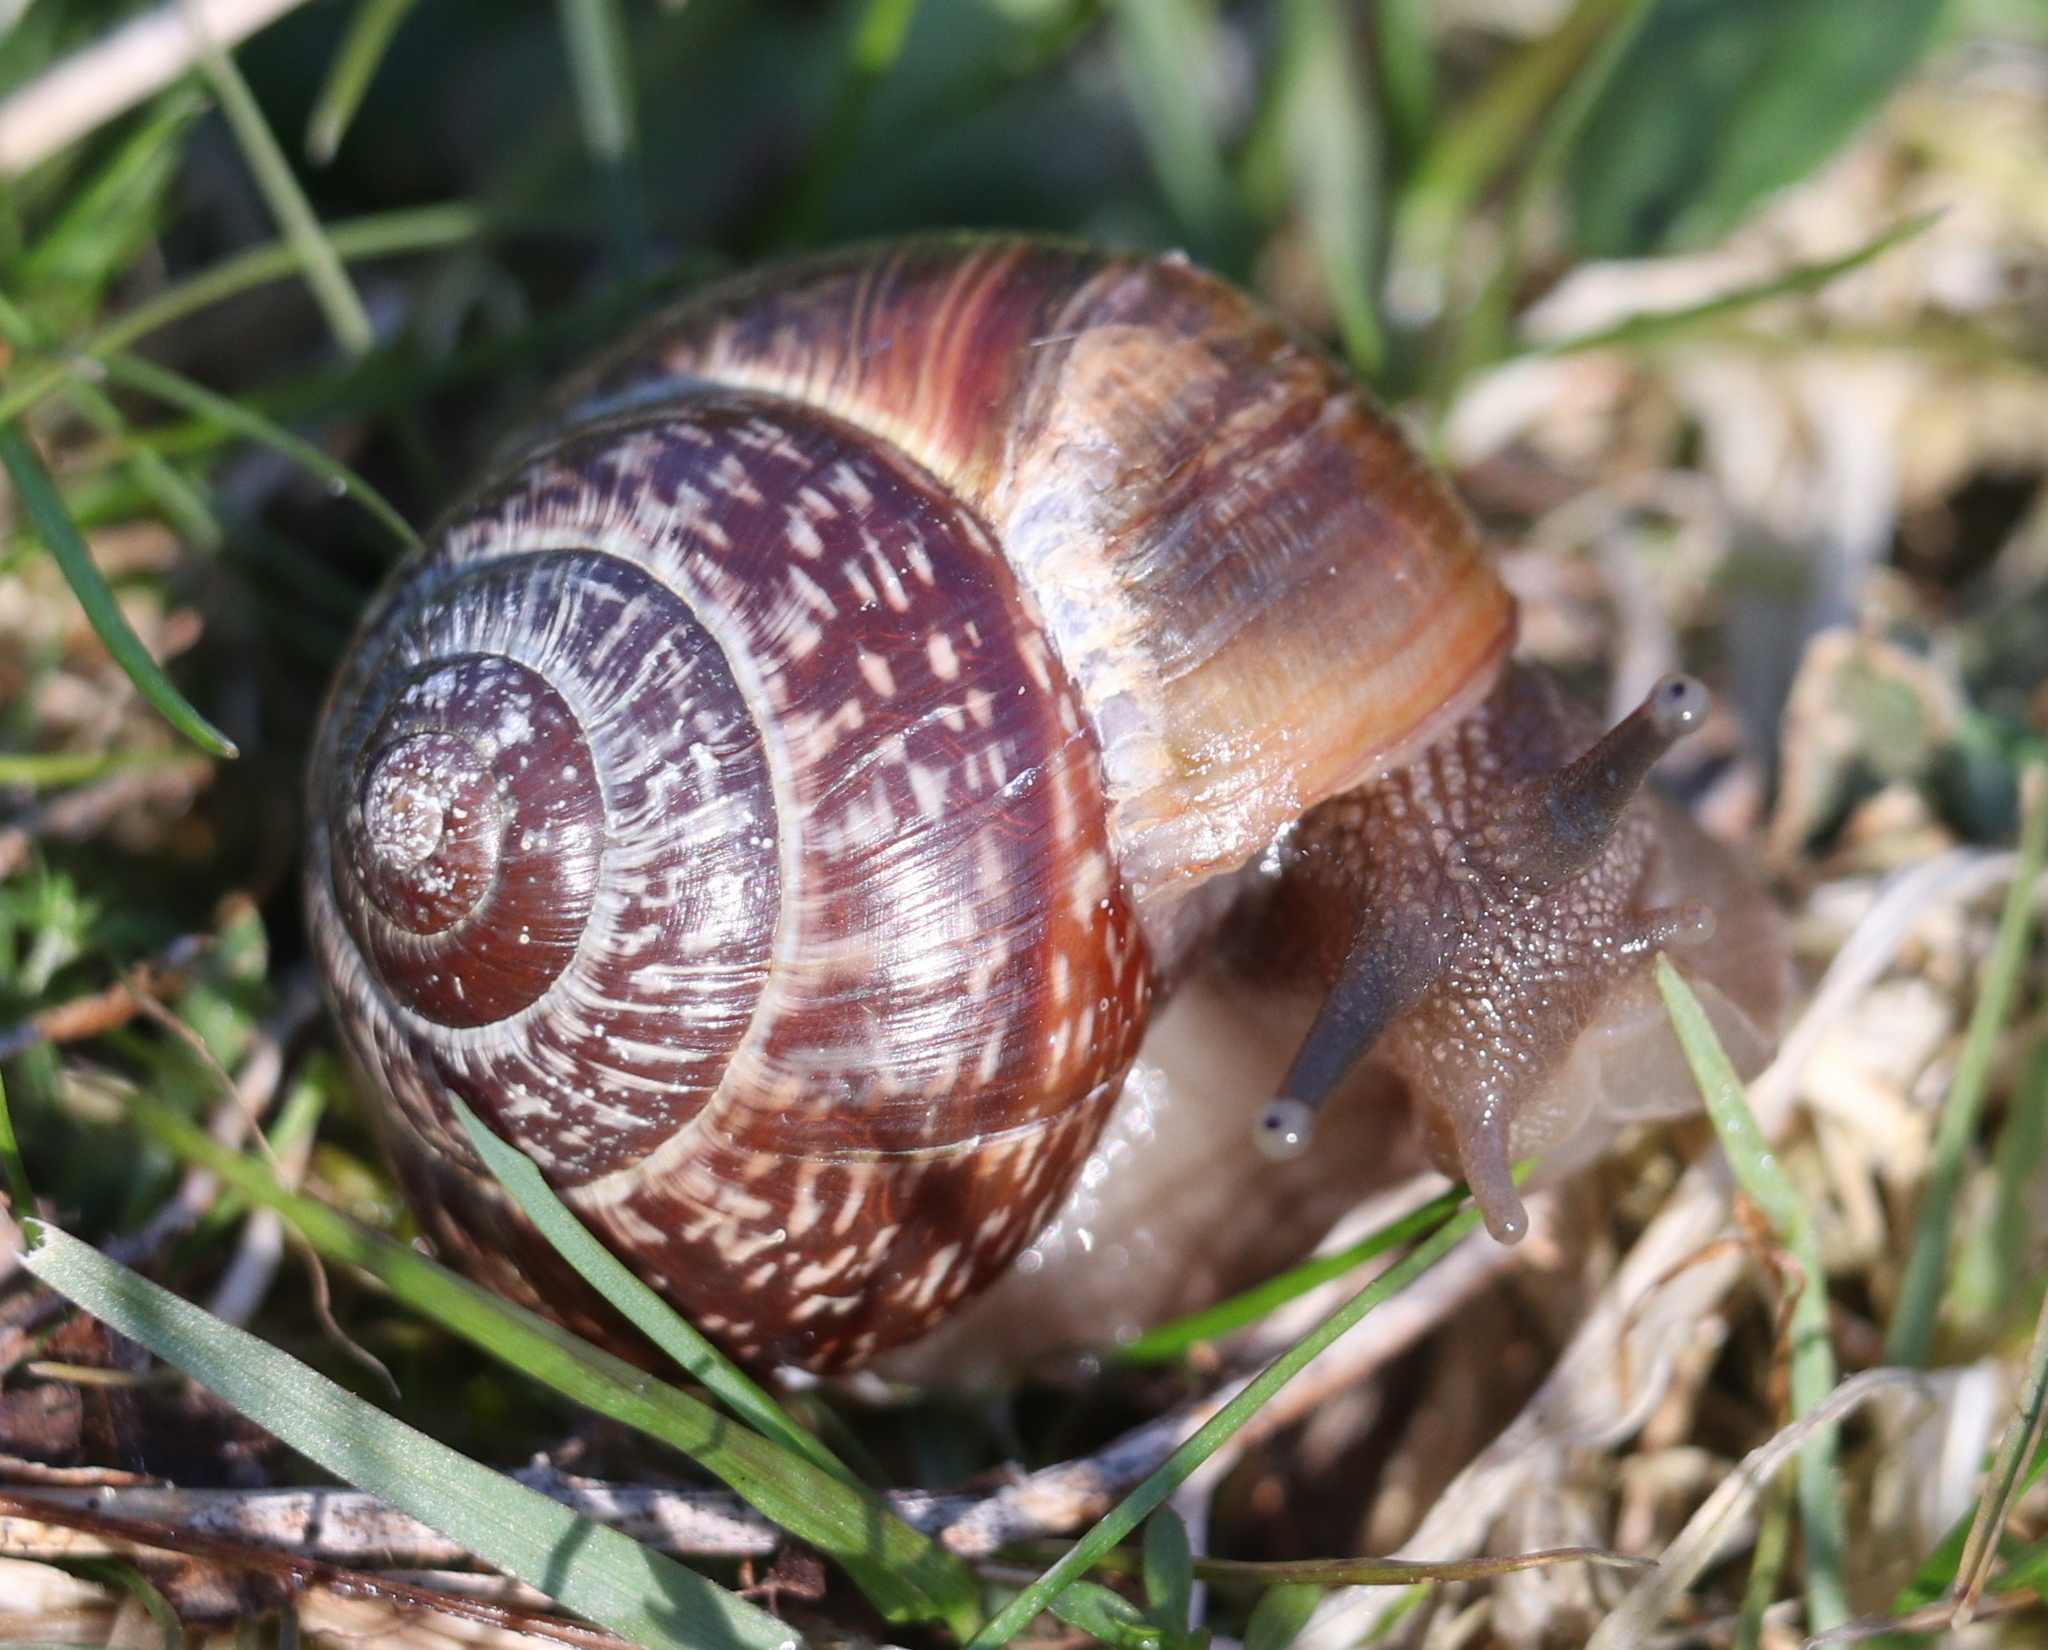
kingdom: Animalia
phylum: Mollusca
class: Gastropoda
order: Stylommatophora
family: Helicidae
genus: Arianta
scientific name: Arianta arbustorum
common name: Copse snail
